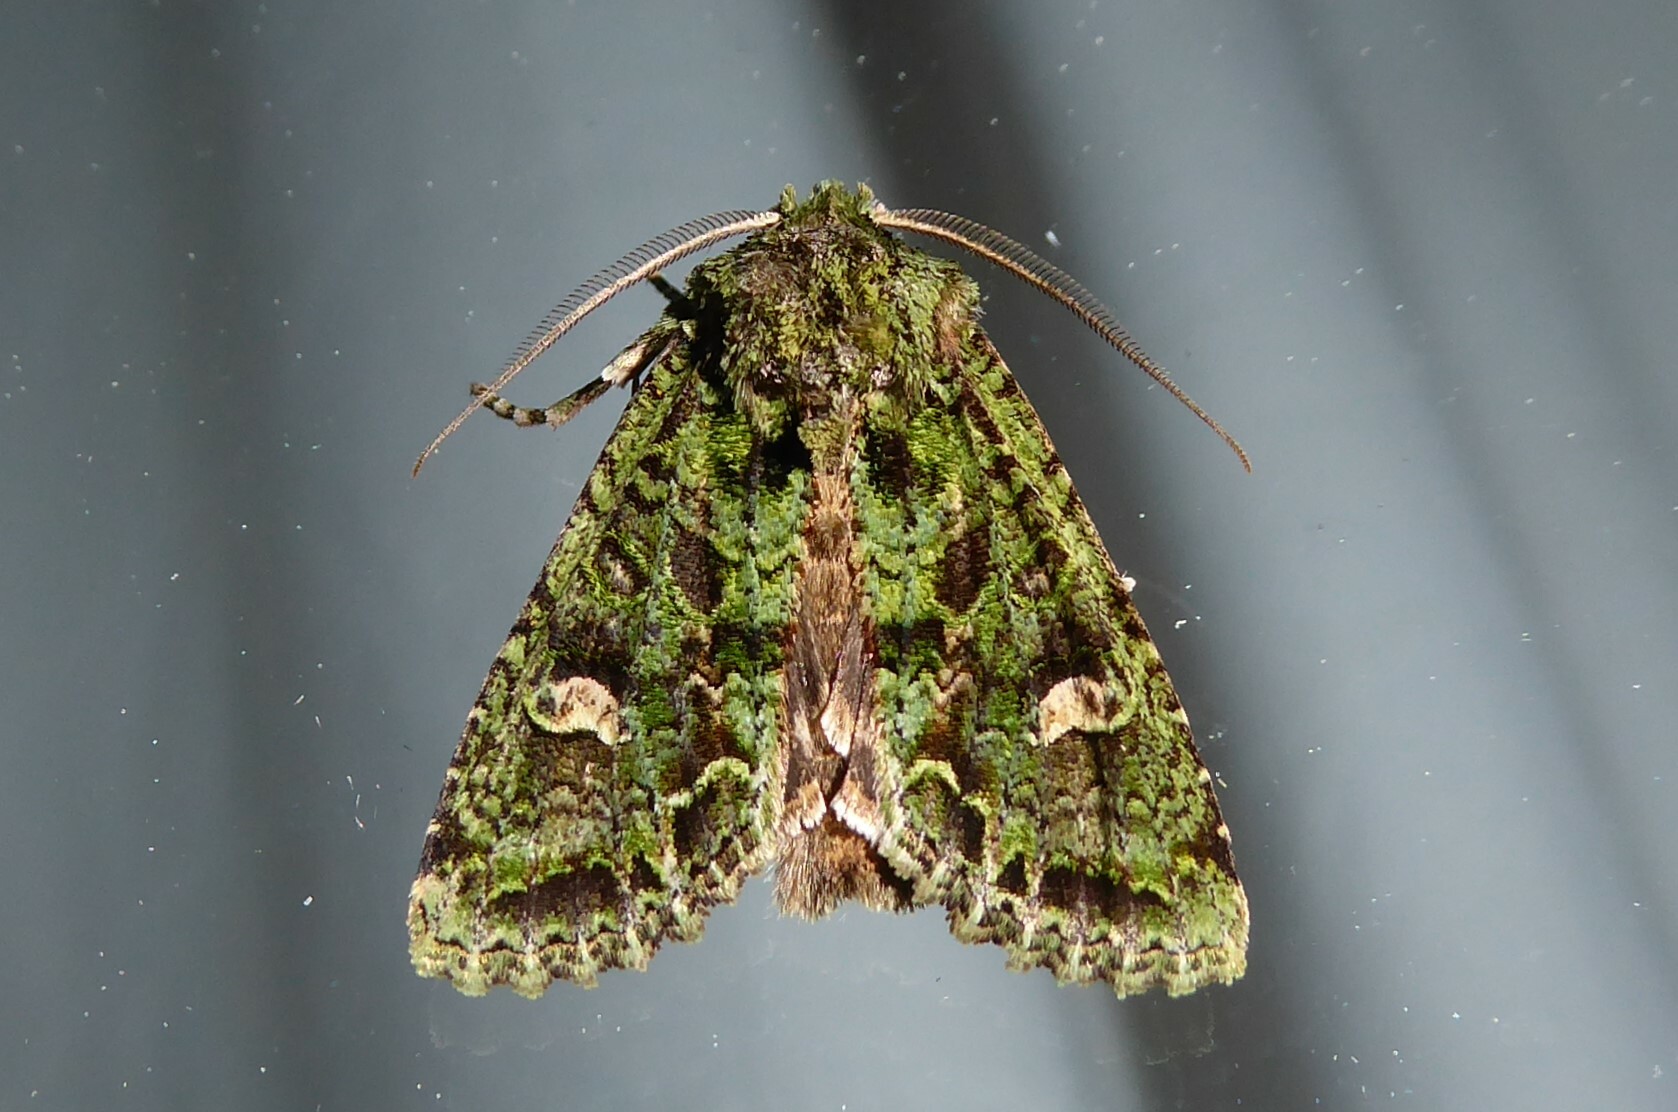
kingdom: Animalia
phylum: Arthropoda
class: Insecta
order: Lepidoptera
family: Noctuidae
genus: Ichneutica
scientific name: Ichneutica
